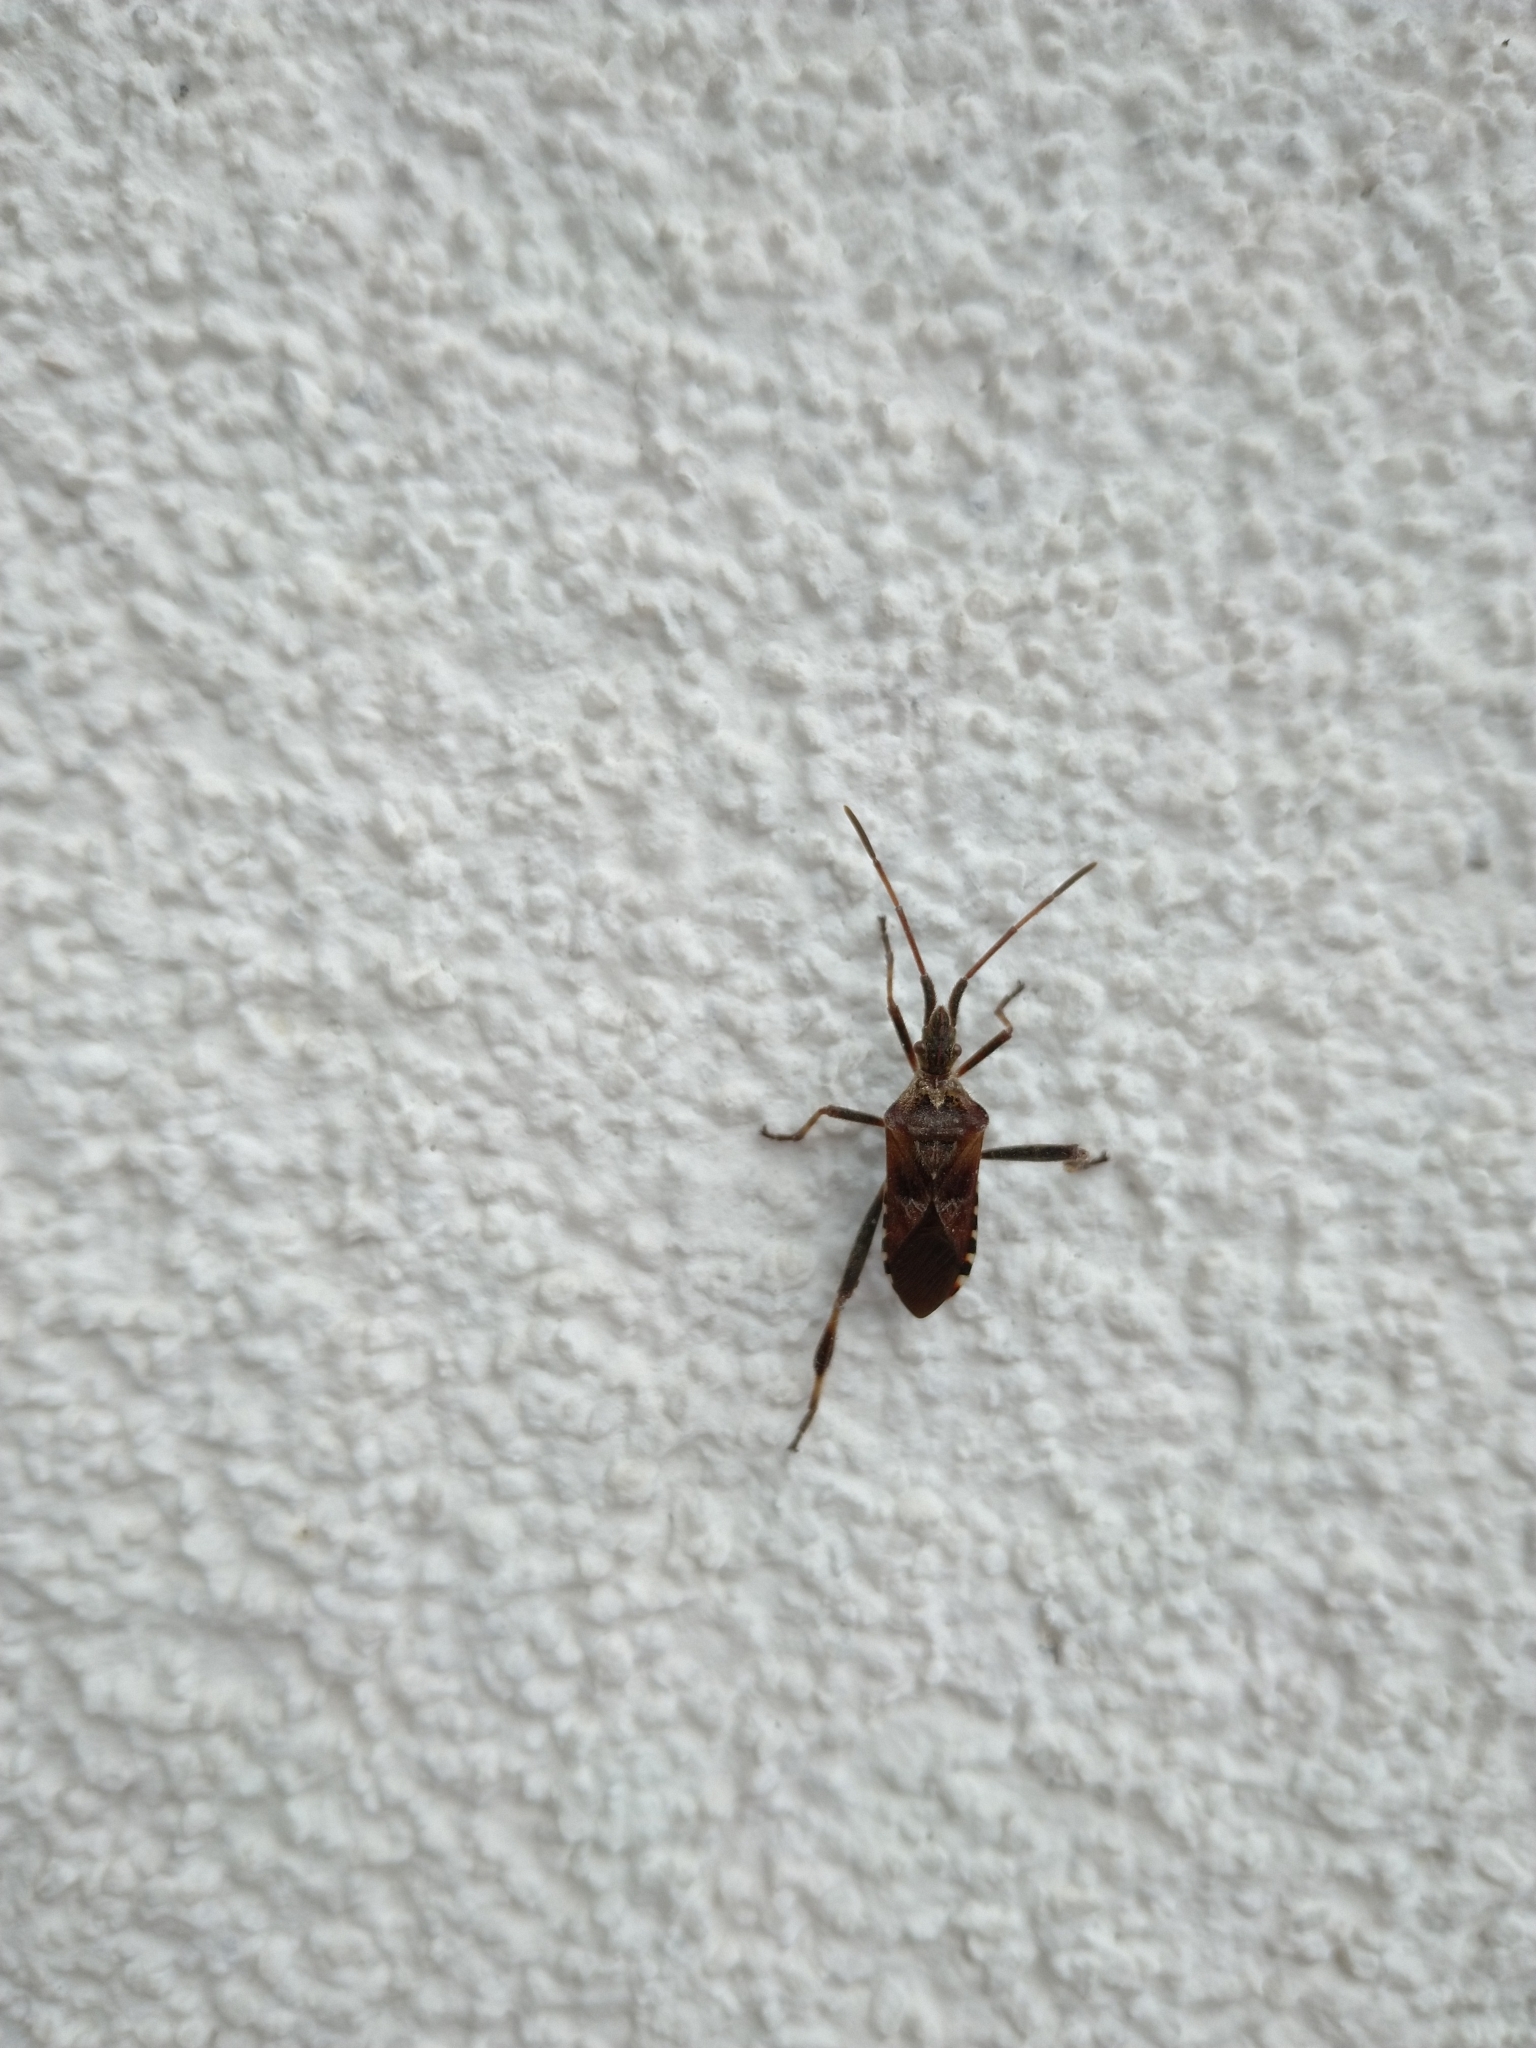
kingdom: Animalia
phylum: Arthropoda
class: Insecta
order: Hemiptera
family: Coreidae
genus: Leptoglossus
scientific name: Leptoglossus occidentalis
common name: Western conifer-seed bug
